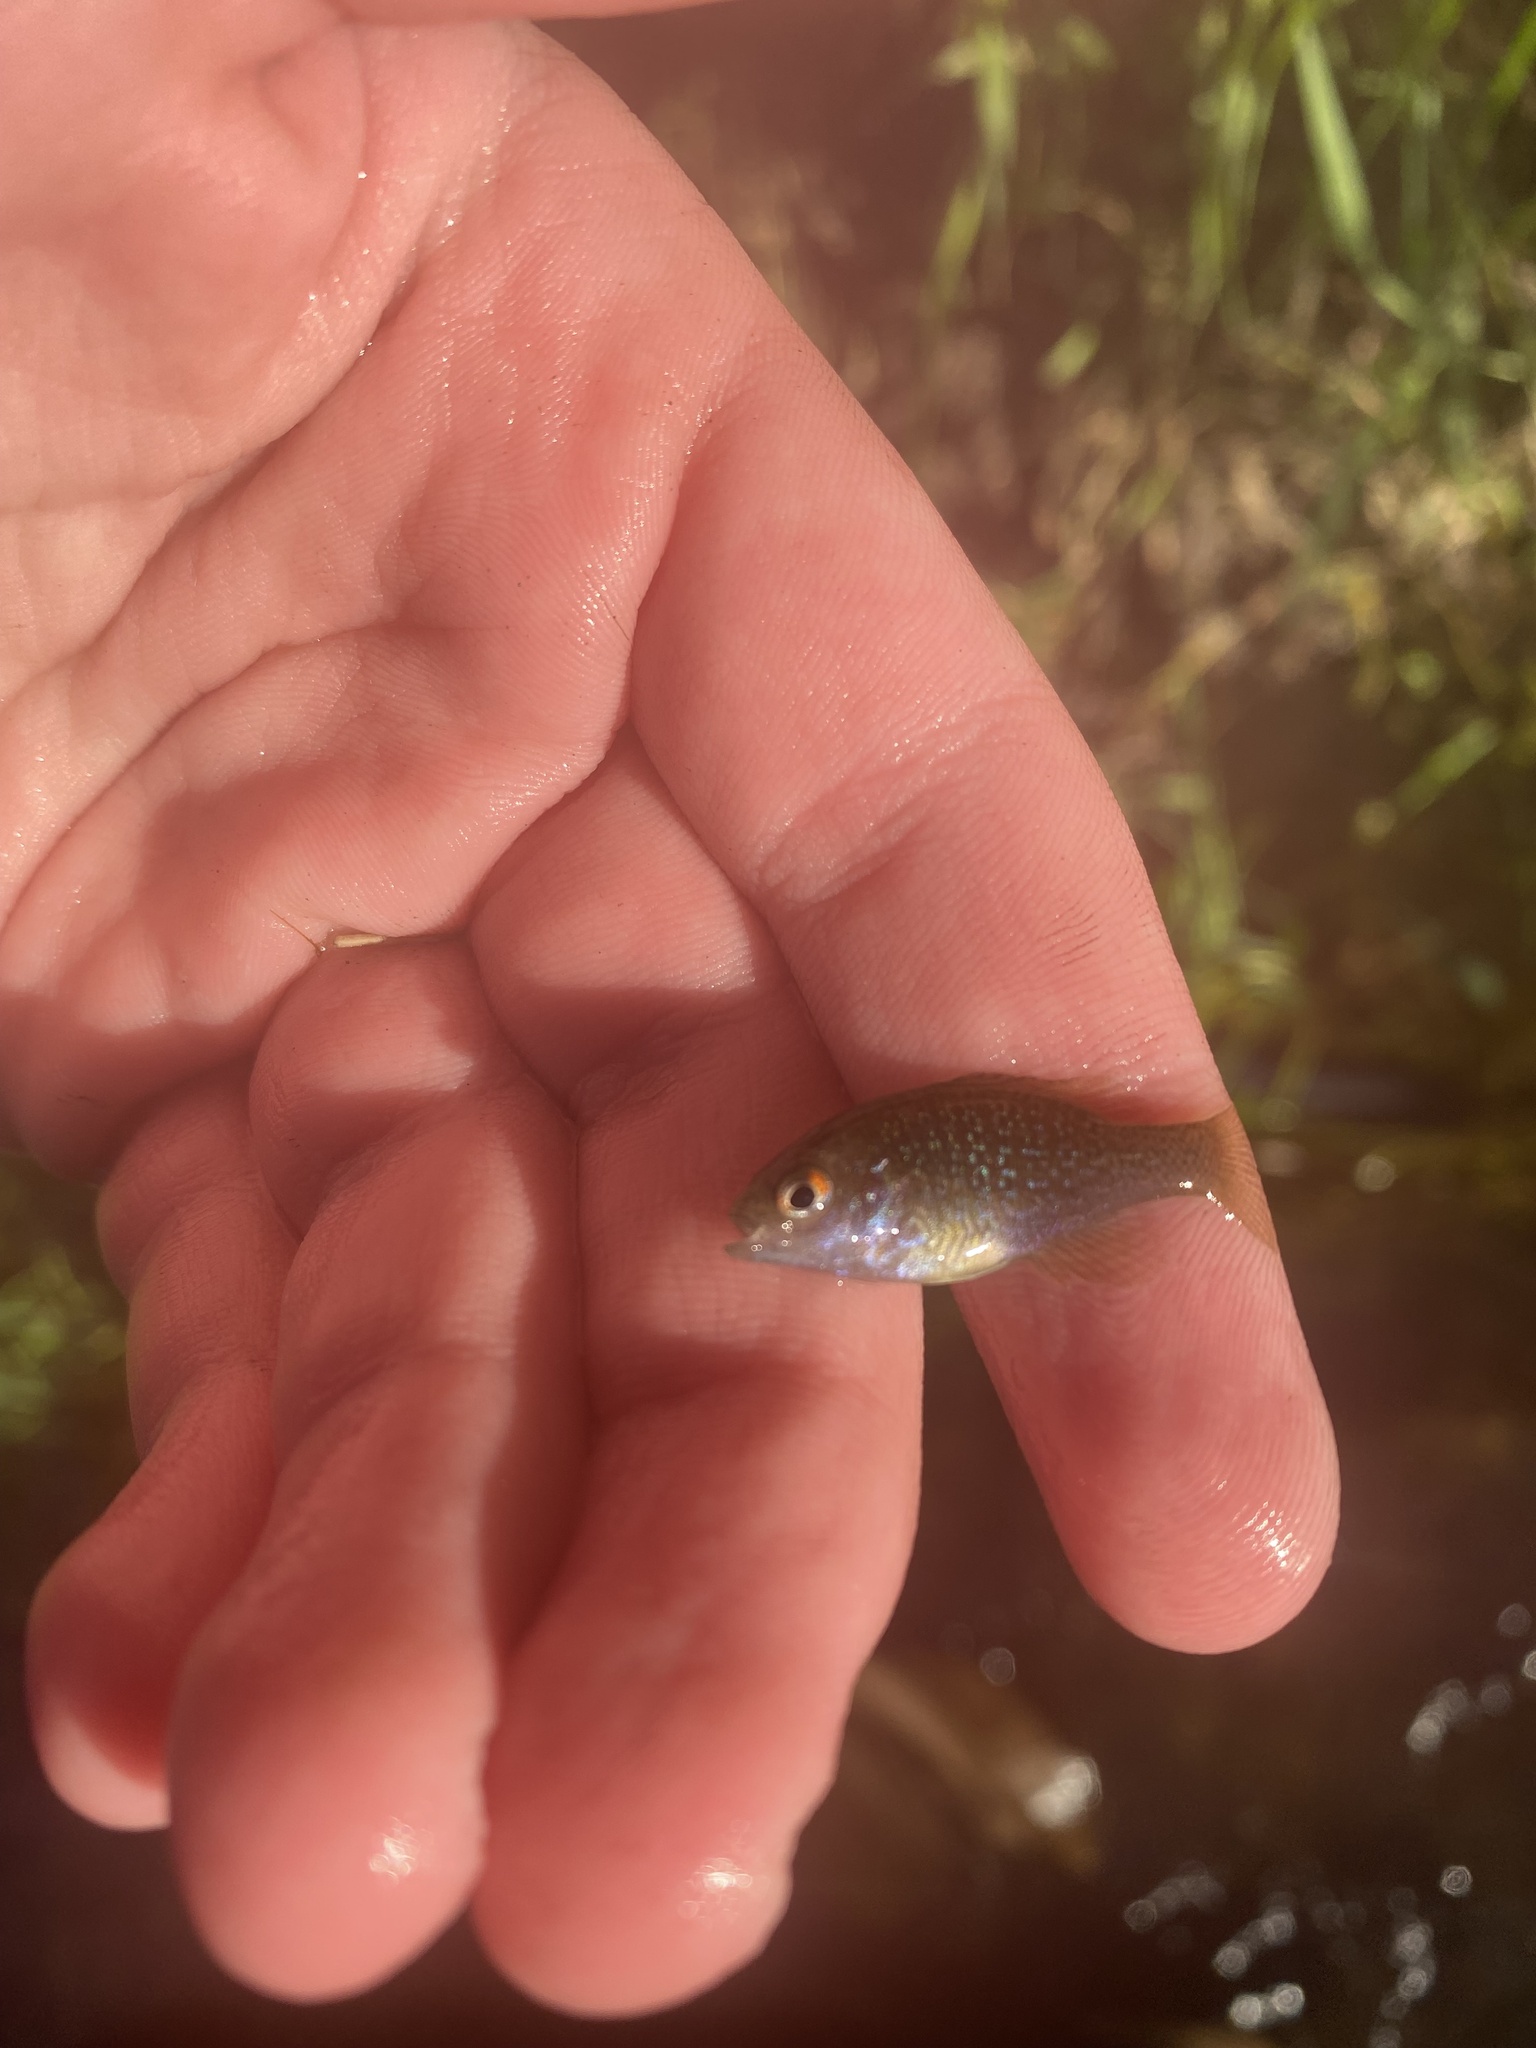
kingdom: Animalia
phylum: Chordata
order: Perciformes
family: Centrarchidae
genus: Lepomis
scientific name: Lepomis cyanellus
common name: Green sunfish
